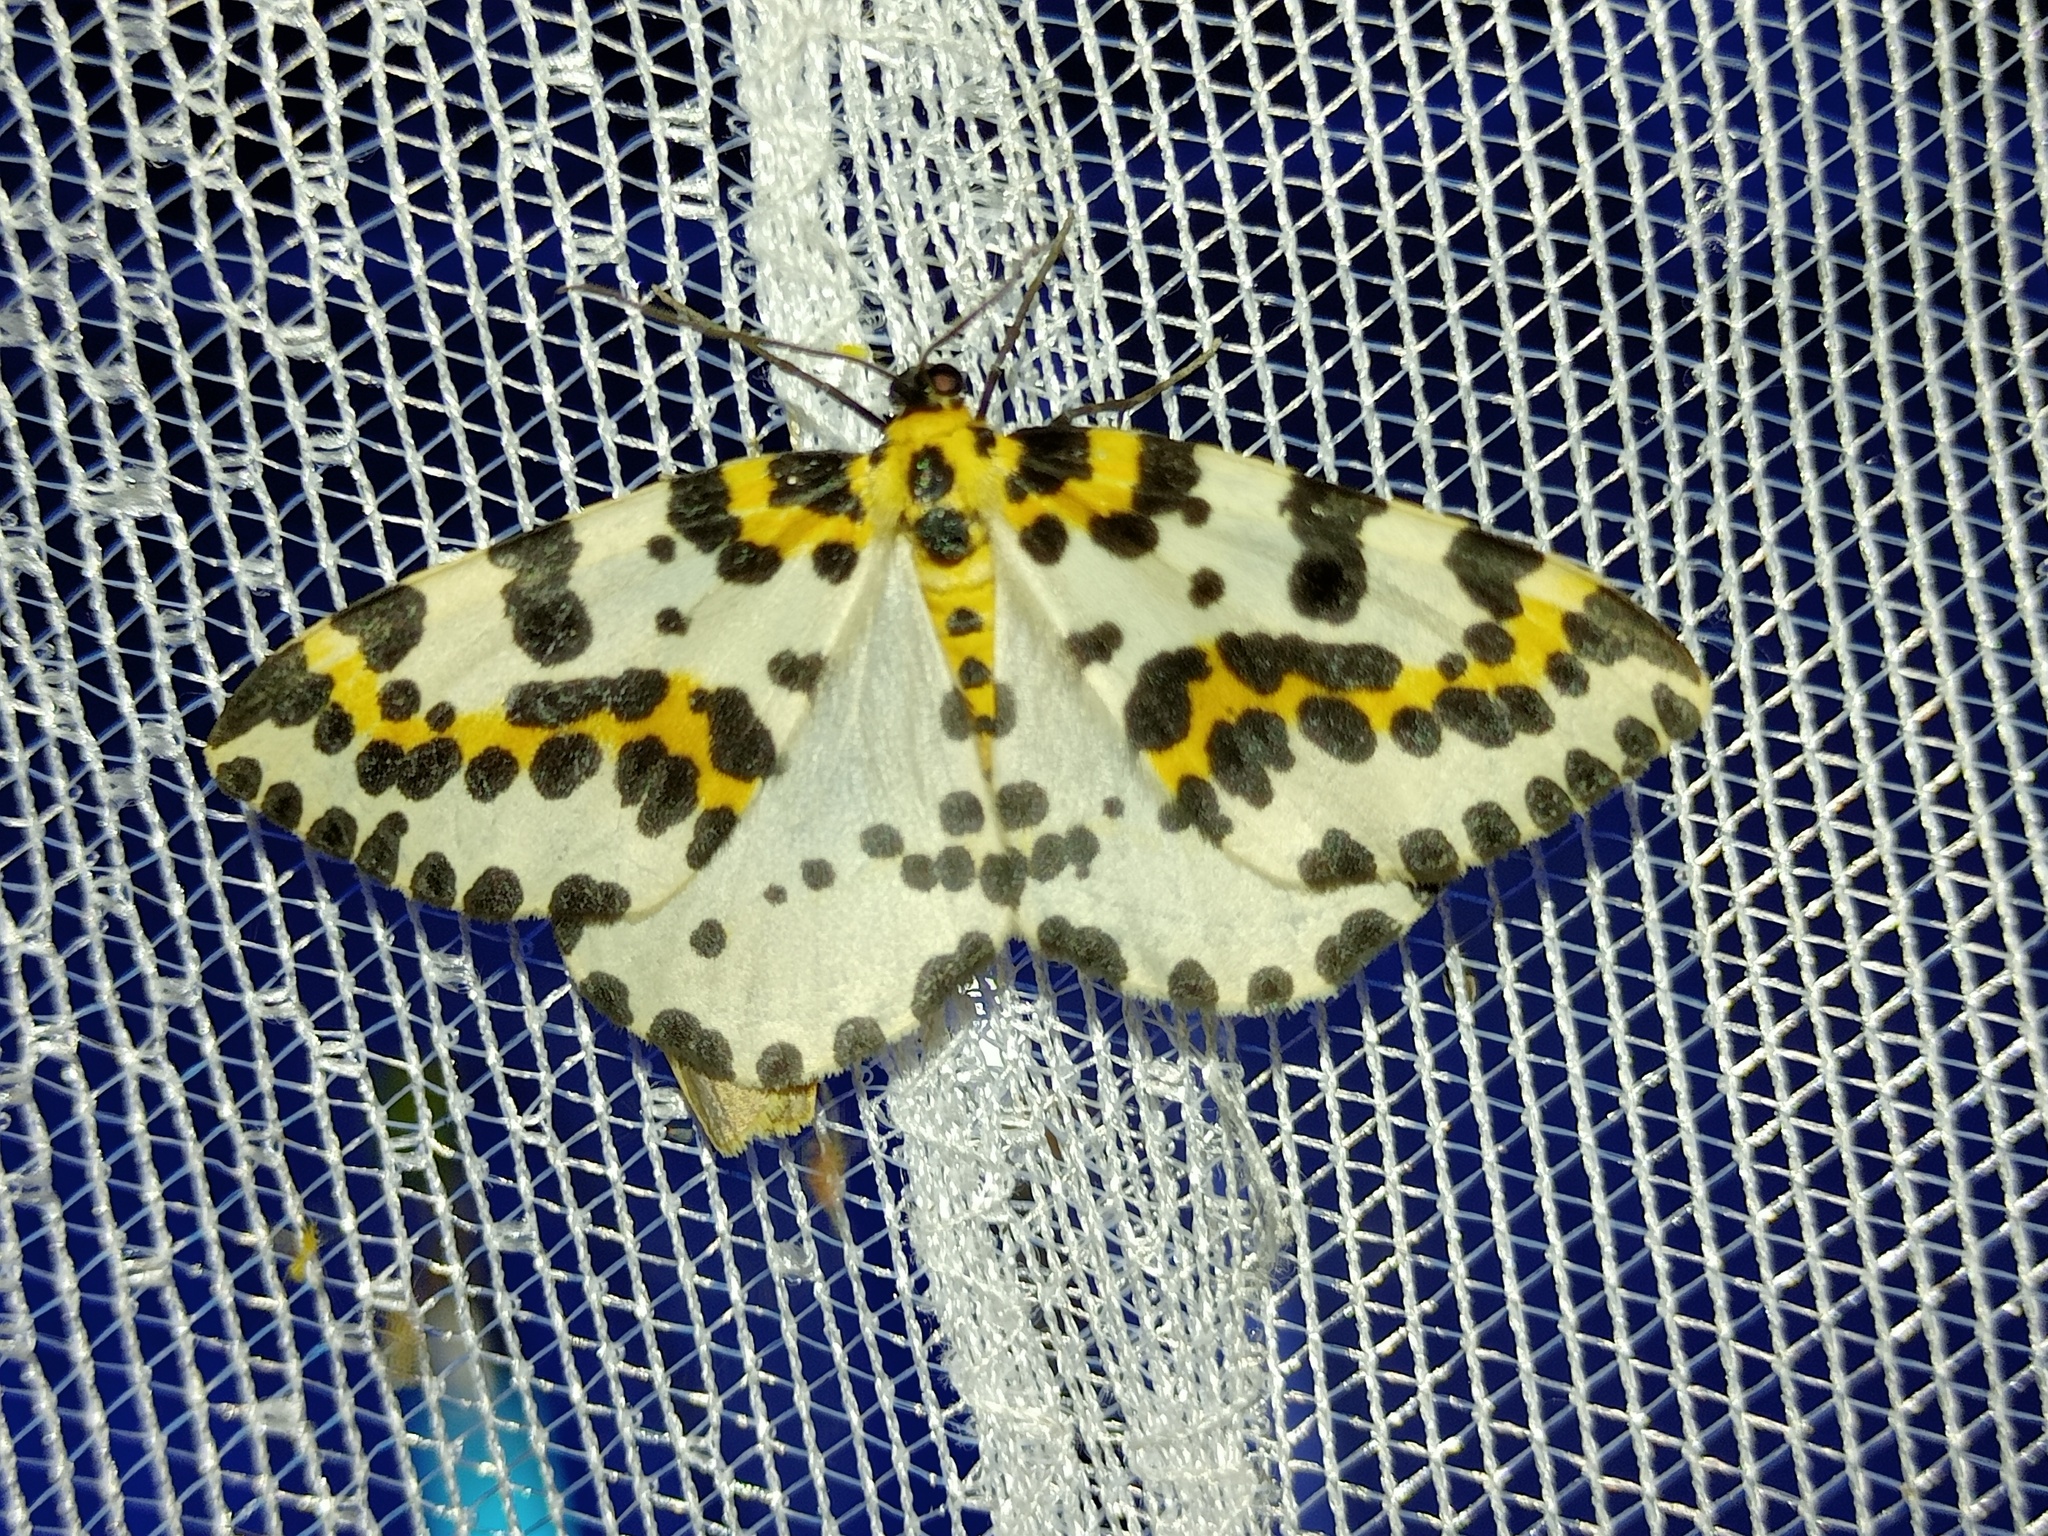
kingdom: Animalia
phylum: Arthropoda
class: Insecta
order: Lepidoptera
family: Geometridae
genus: Abraxas
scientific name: Abraxas grossulariata
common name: Magpie
